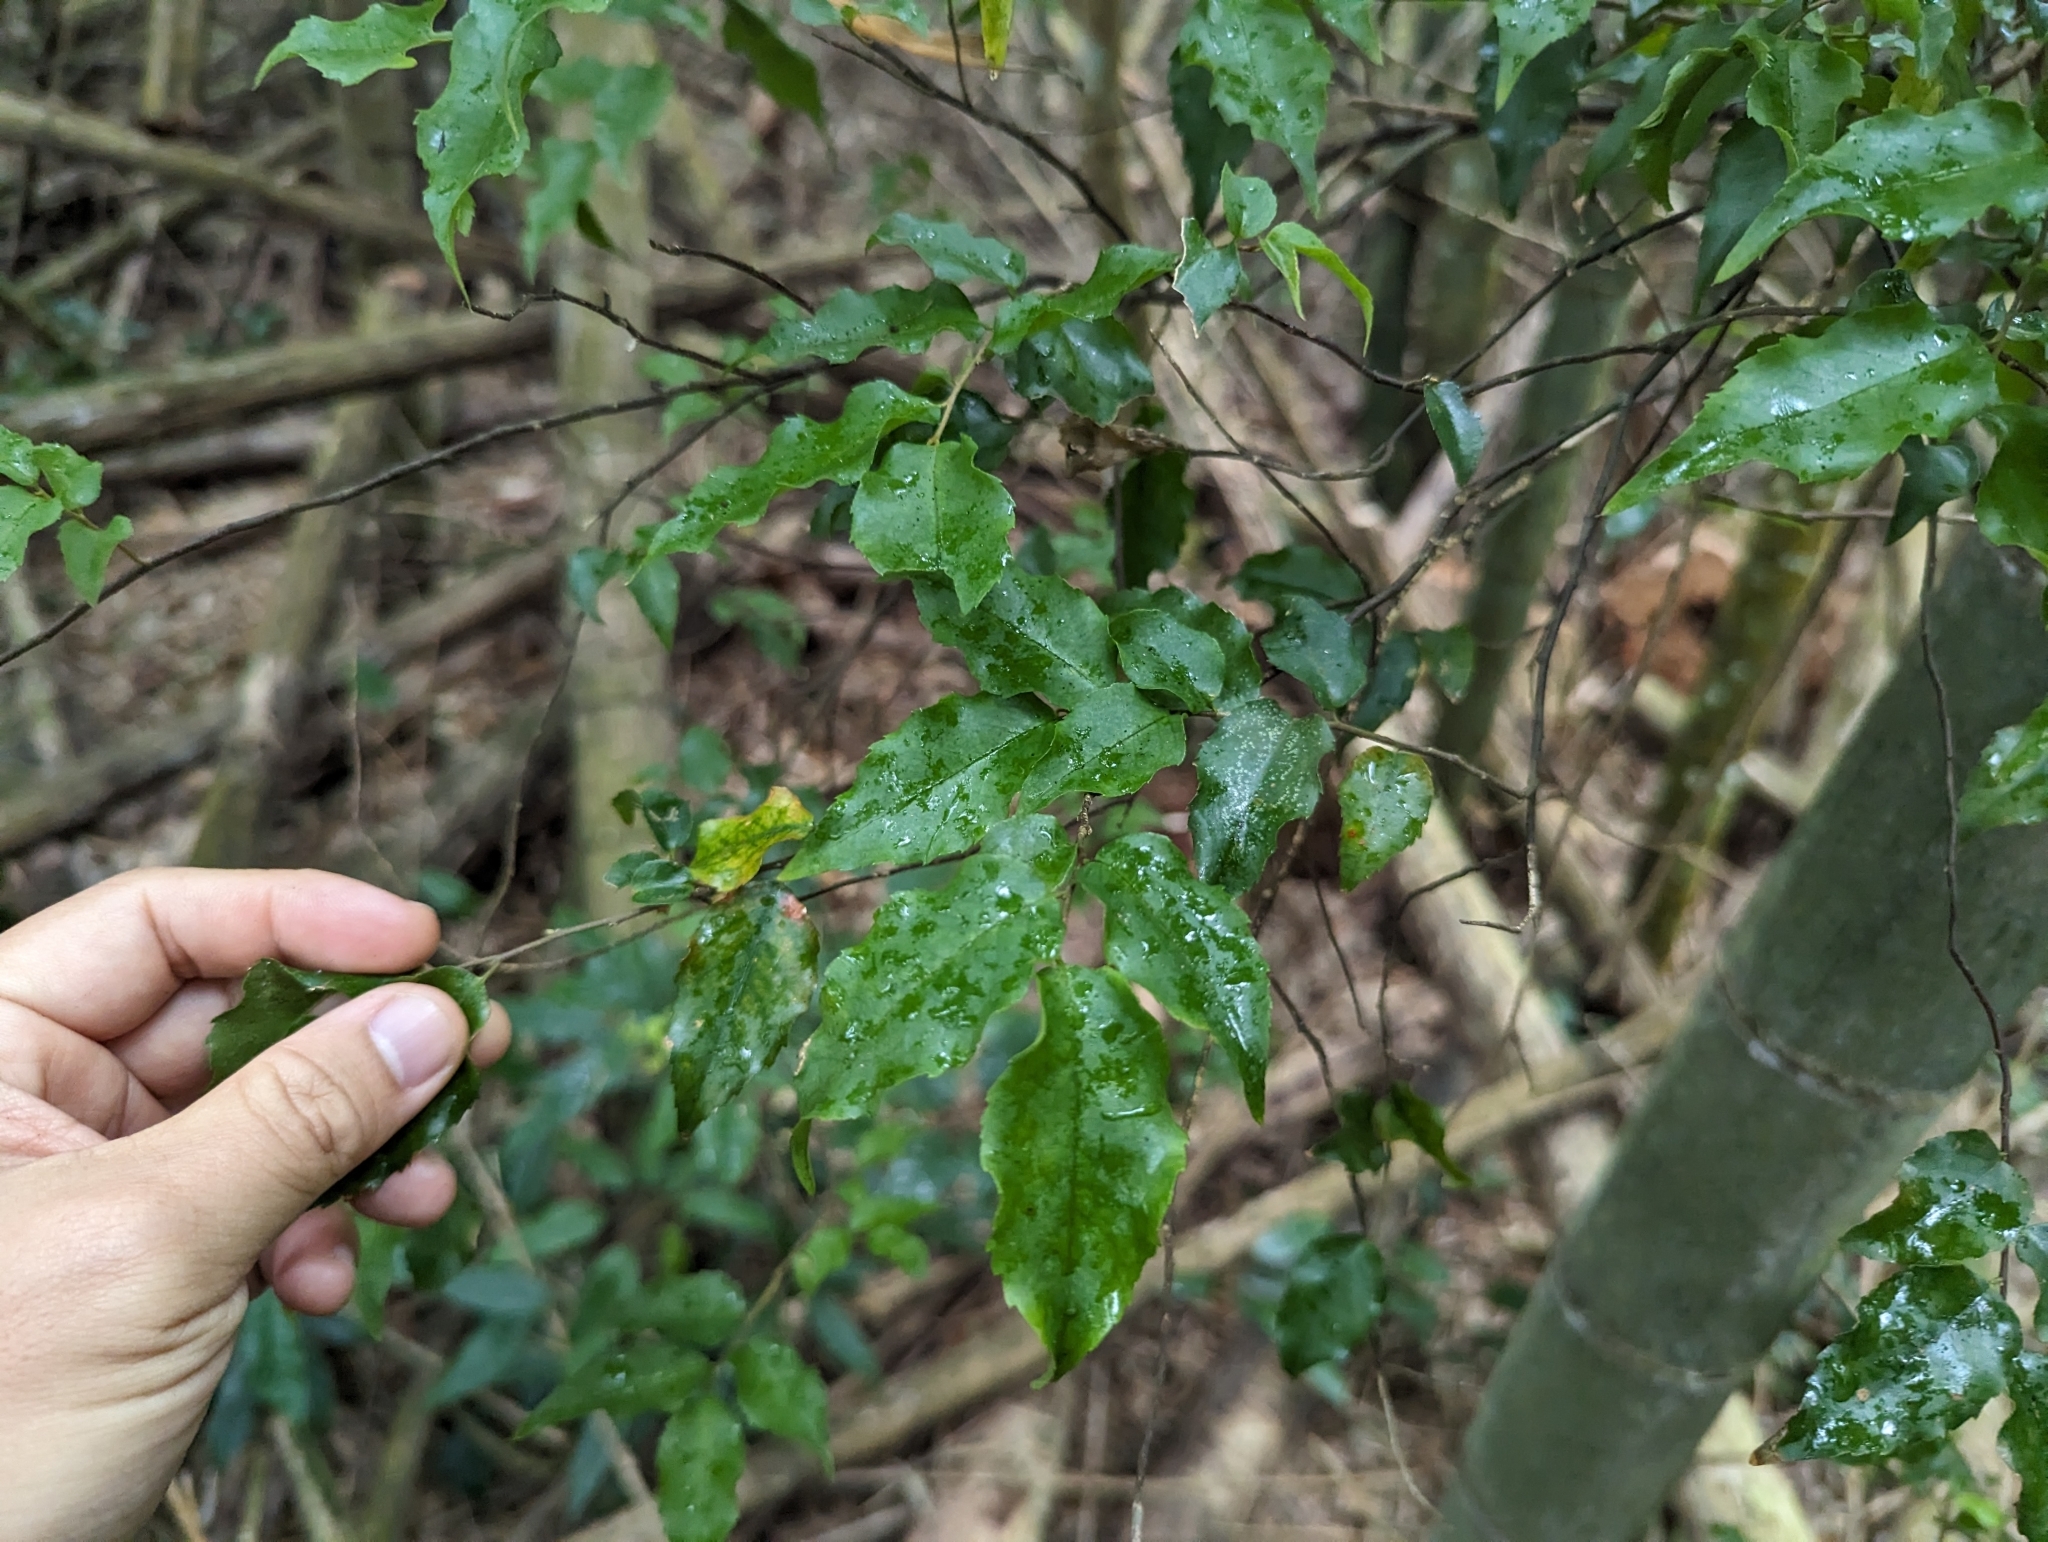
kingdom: Plantae
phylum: Tracheophyta
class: Magnoliopsida
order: Ericales
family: Symplocaceae
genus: Symplocos
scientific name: Symplocos sumuntia
